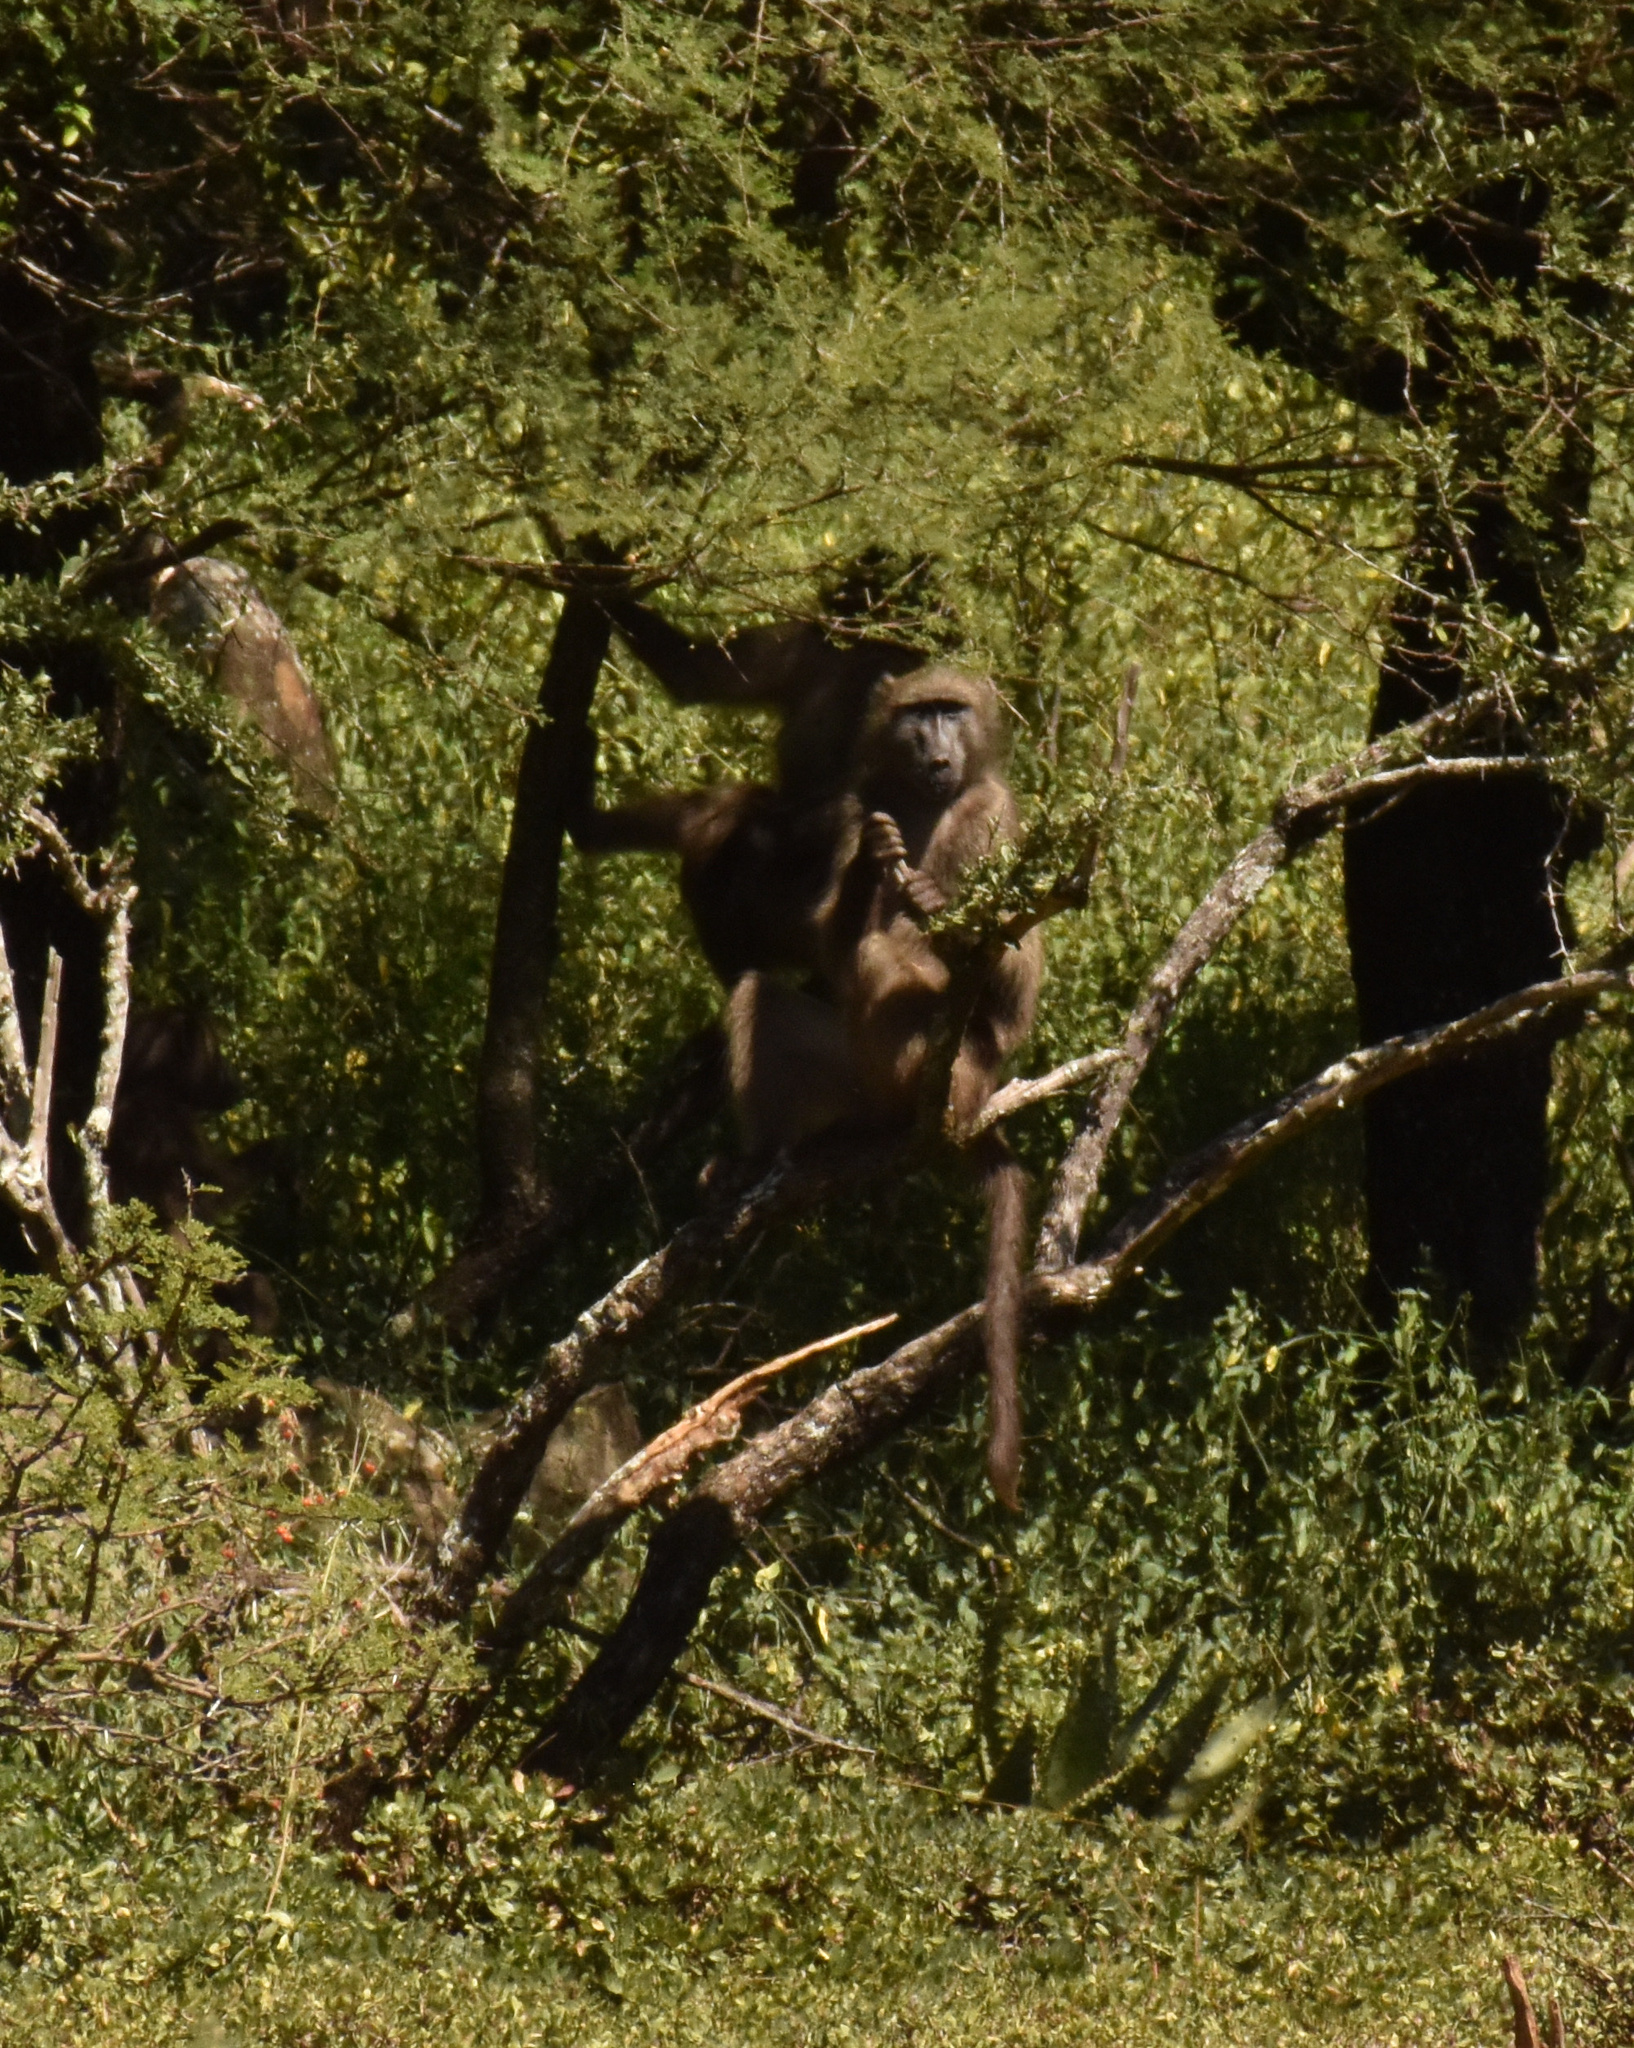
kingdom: Animalia
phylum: Chordata
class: Mammalia
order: Primates
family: Cercopithecidae
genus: Papio
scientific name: Papio ursinus
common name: Chacma baboon
